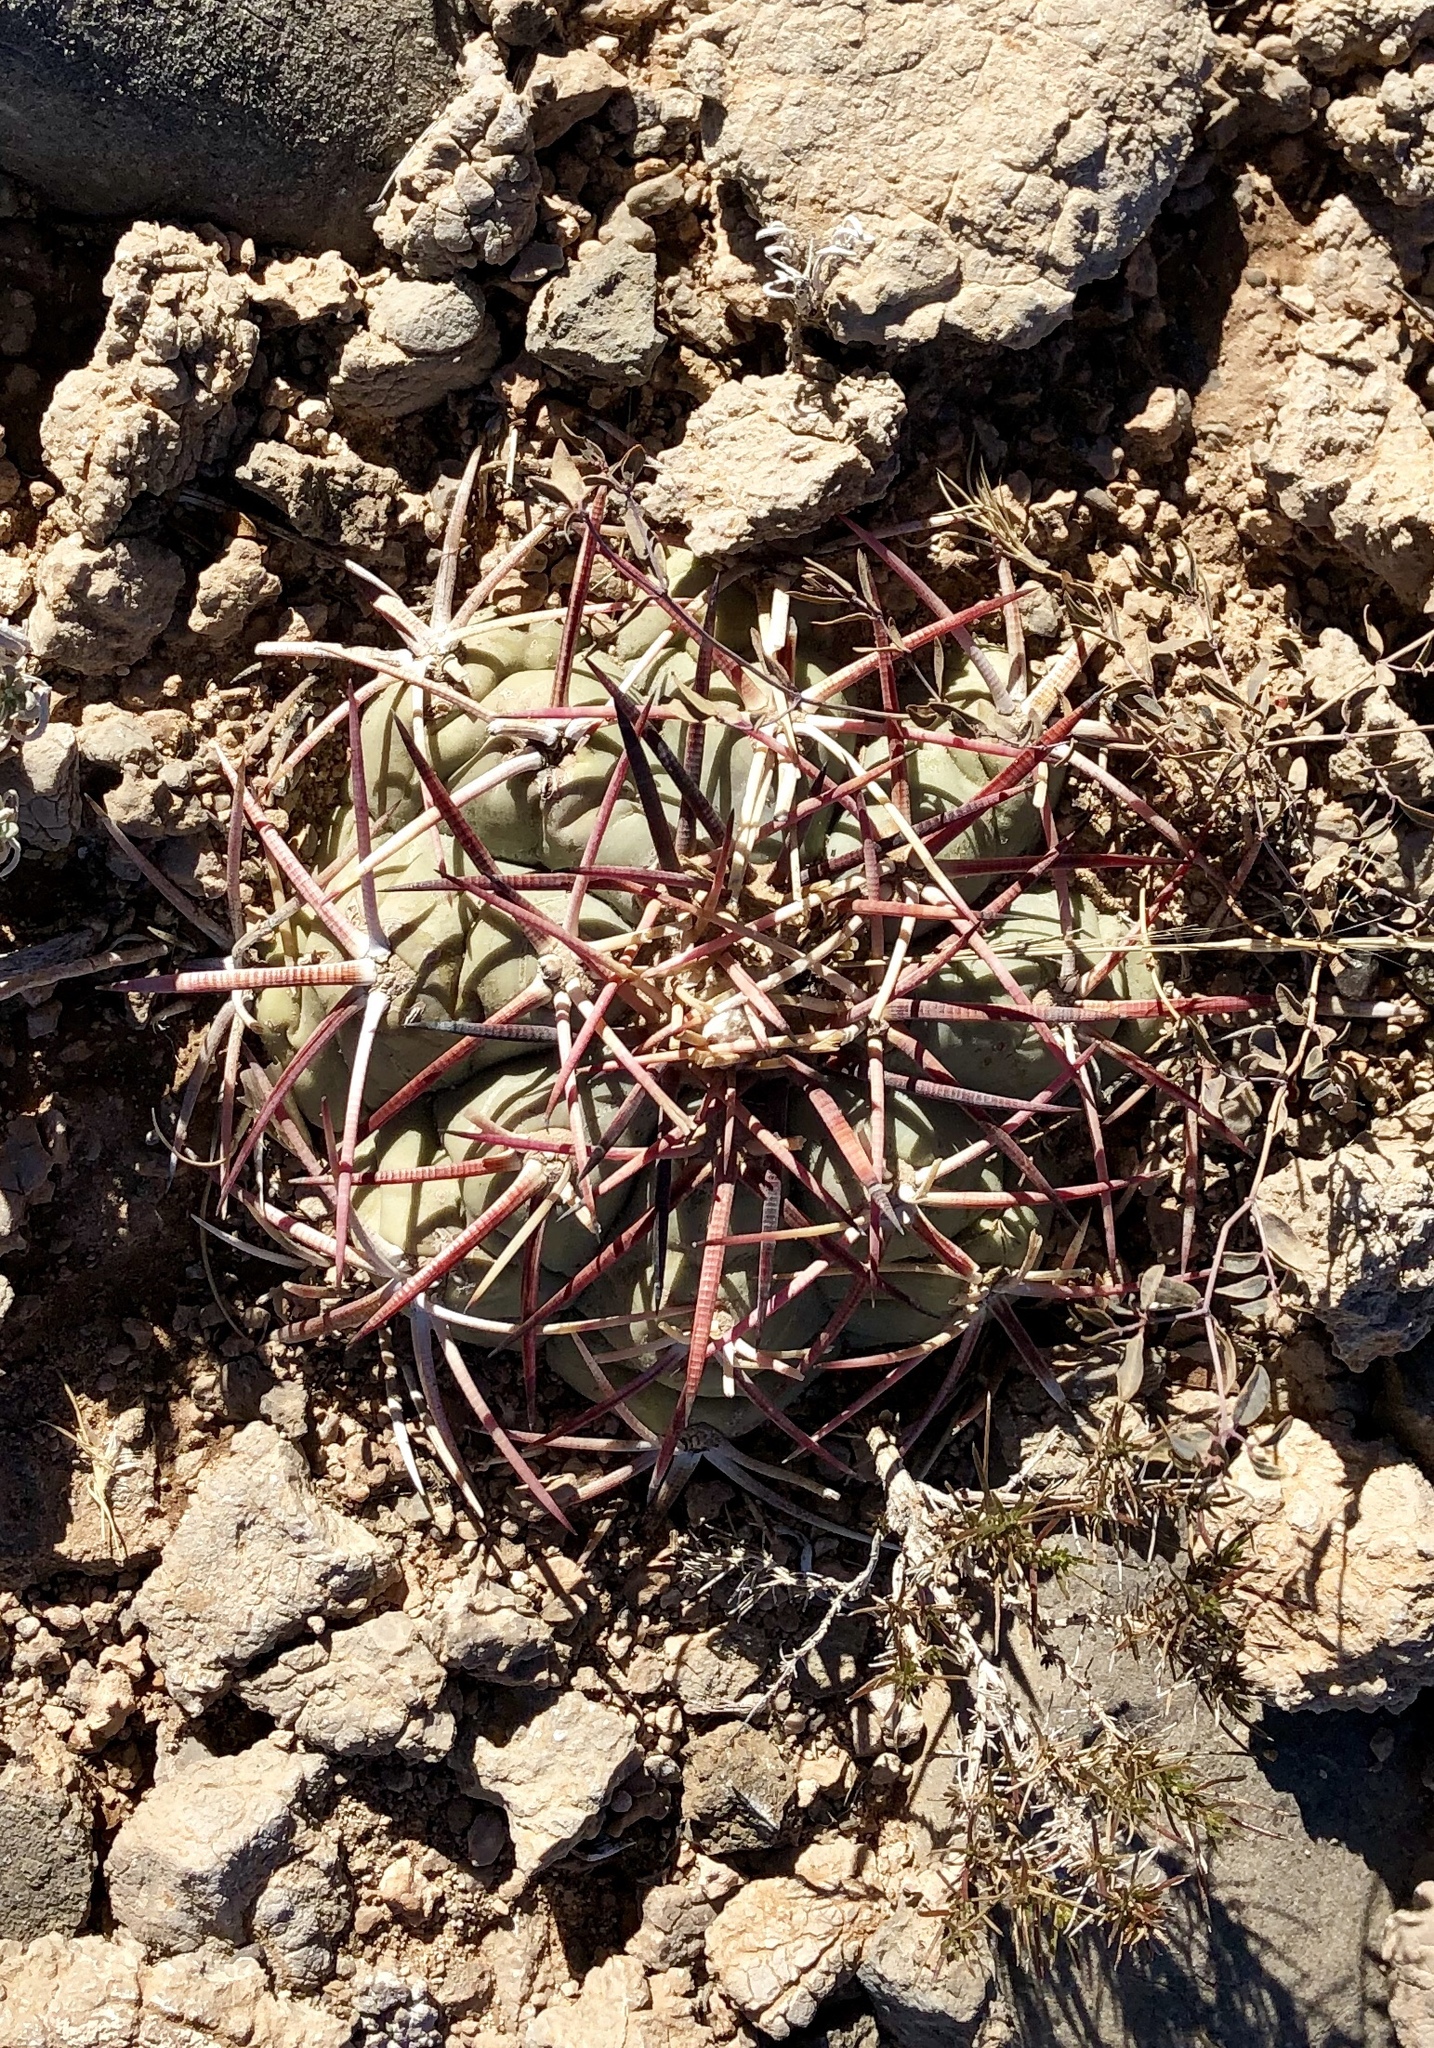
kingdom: Plantae
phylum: Tracheophyta
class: Magnoliopsida
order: Caryophyllales
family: Cactaceae
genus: Echinocactus
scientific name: Echinocactus horizonthalonius
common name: Devilshead
